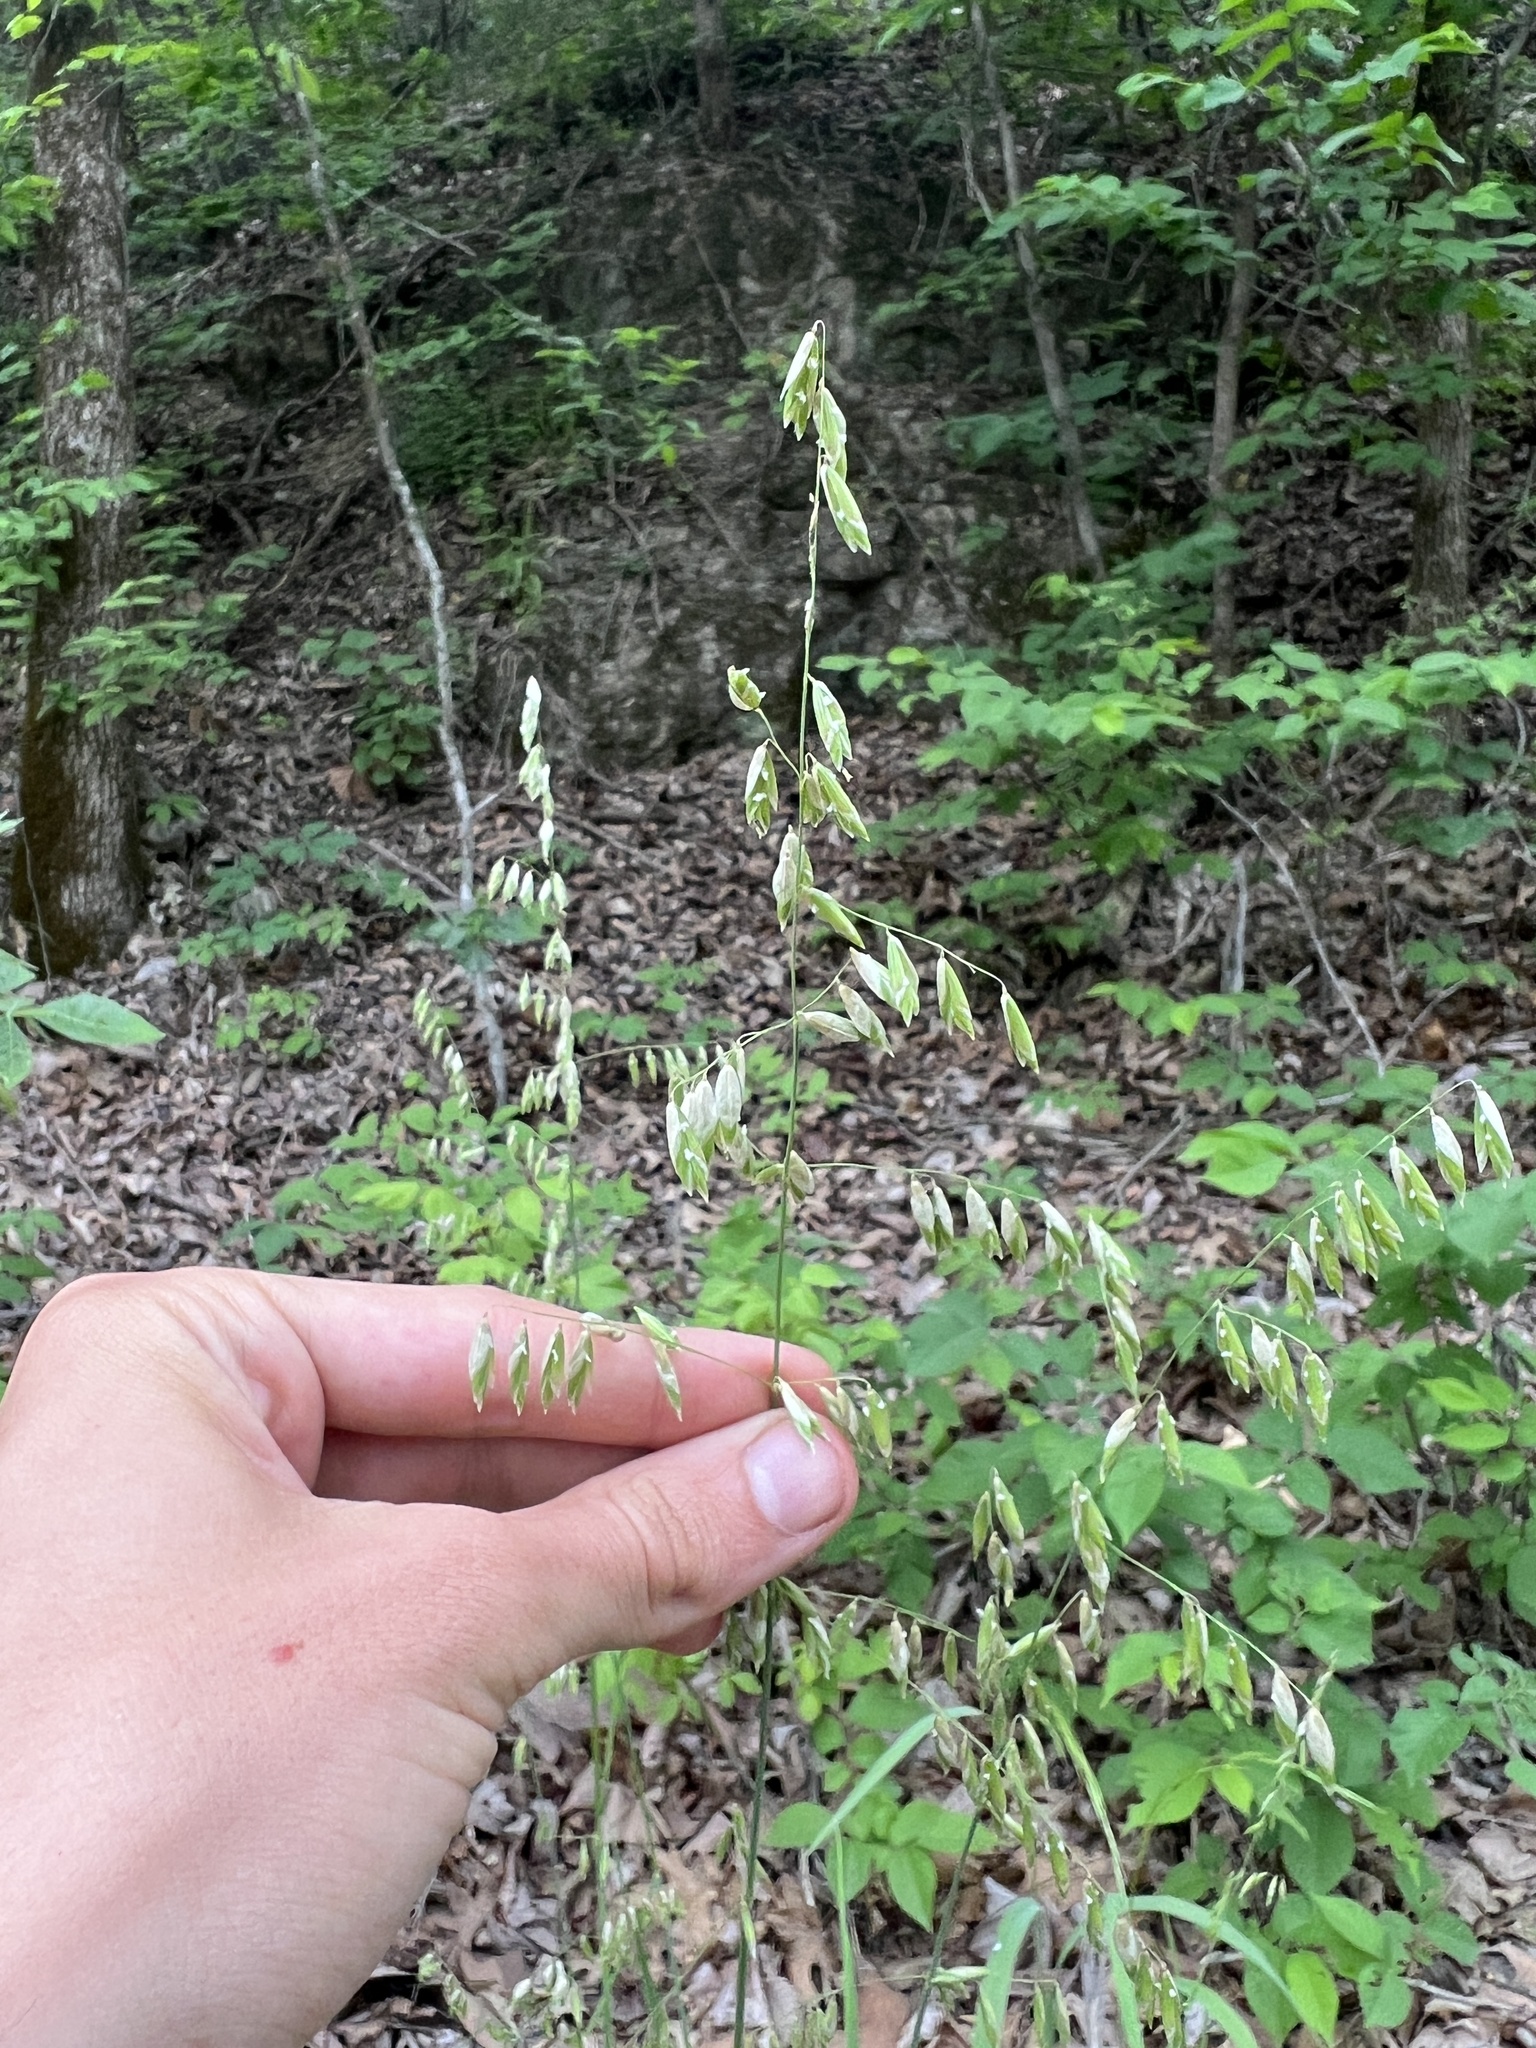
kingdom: Plantae
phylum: Tracheophyta
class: Liliopsida
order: Poales
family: Poaceae
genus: Melica
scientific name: Melica nitens
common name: Three-flower melic
